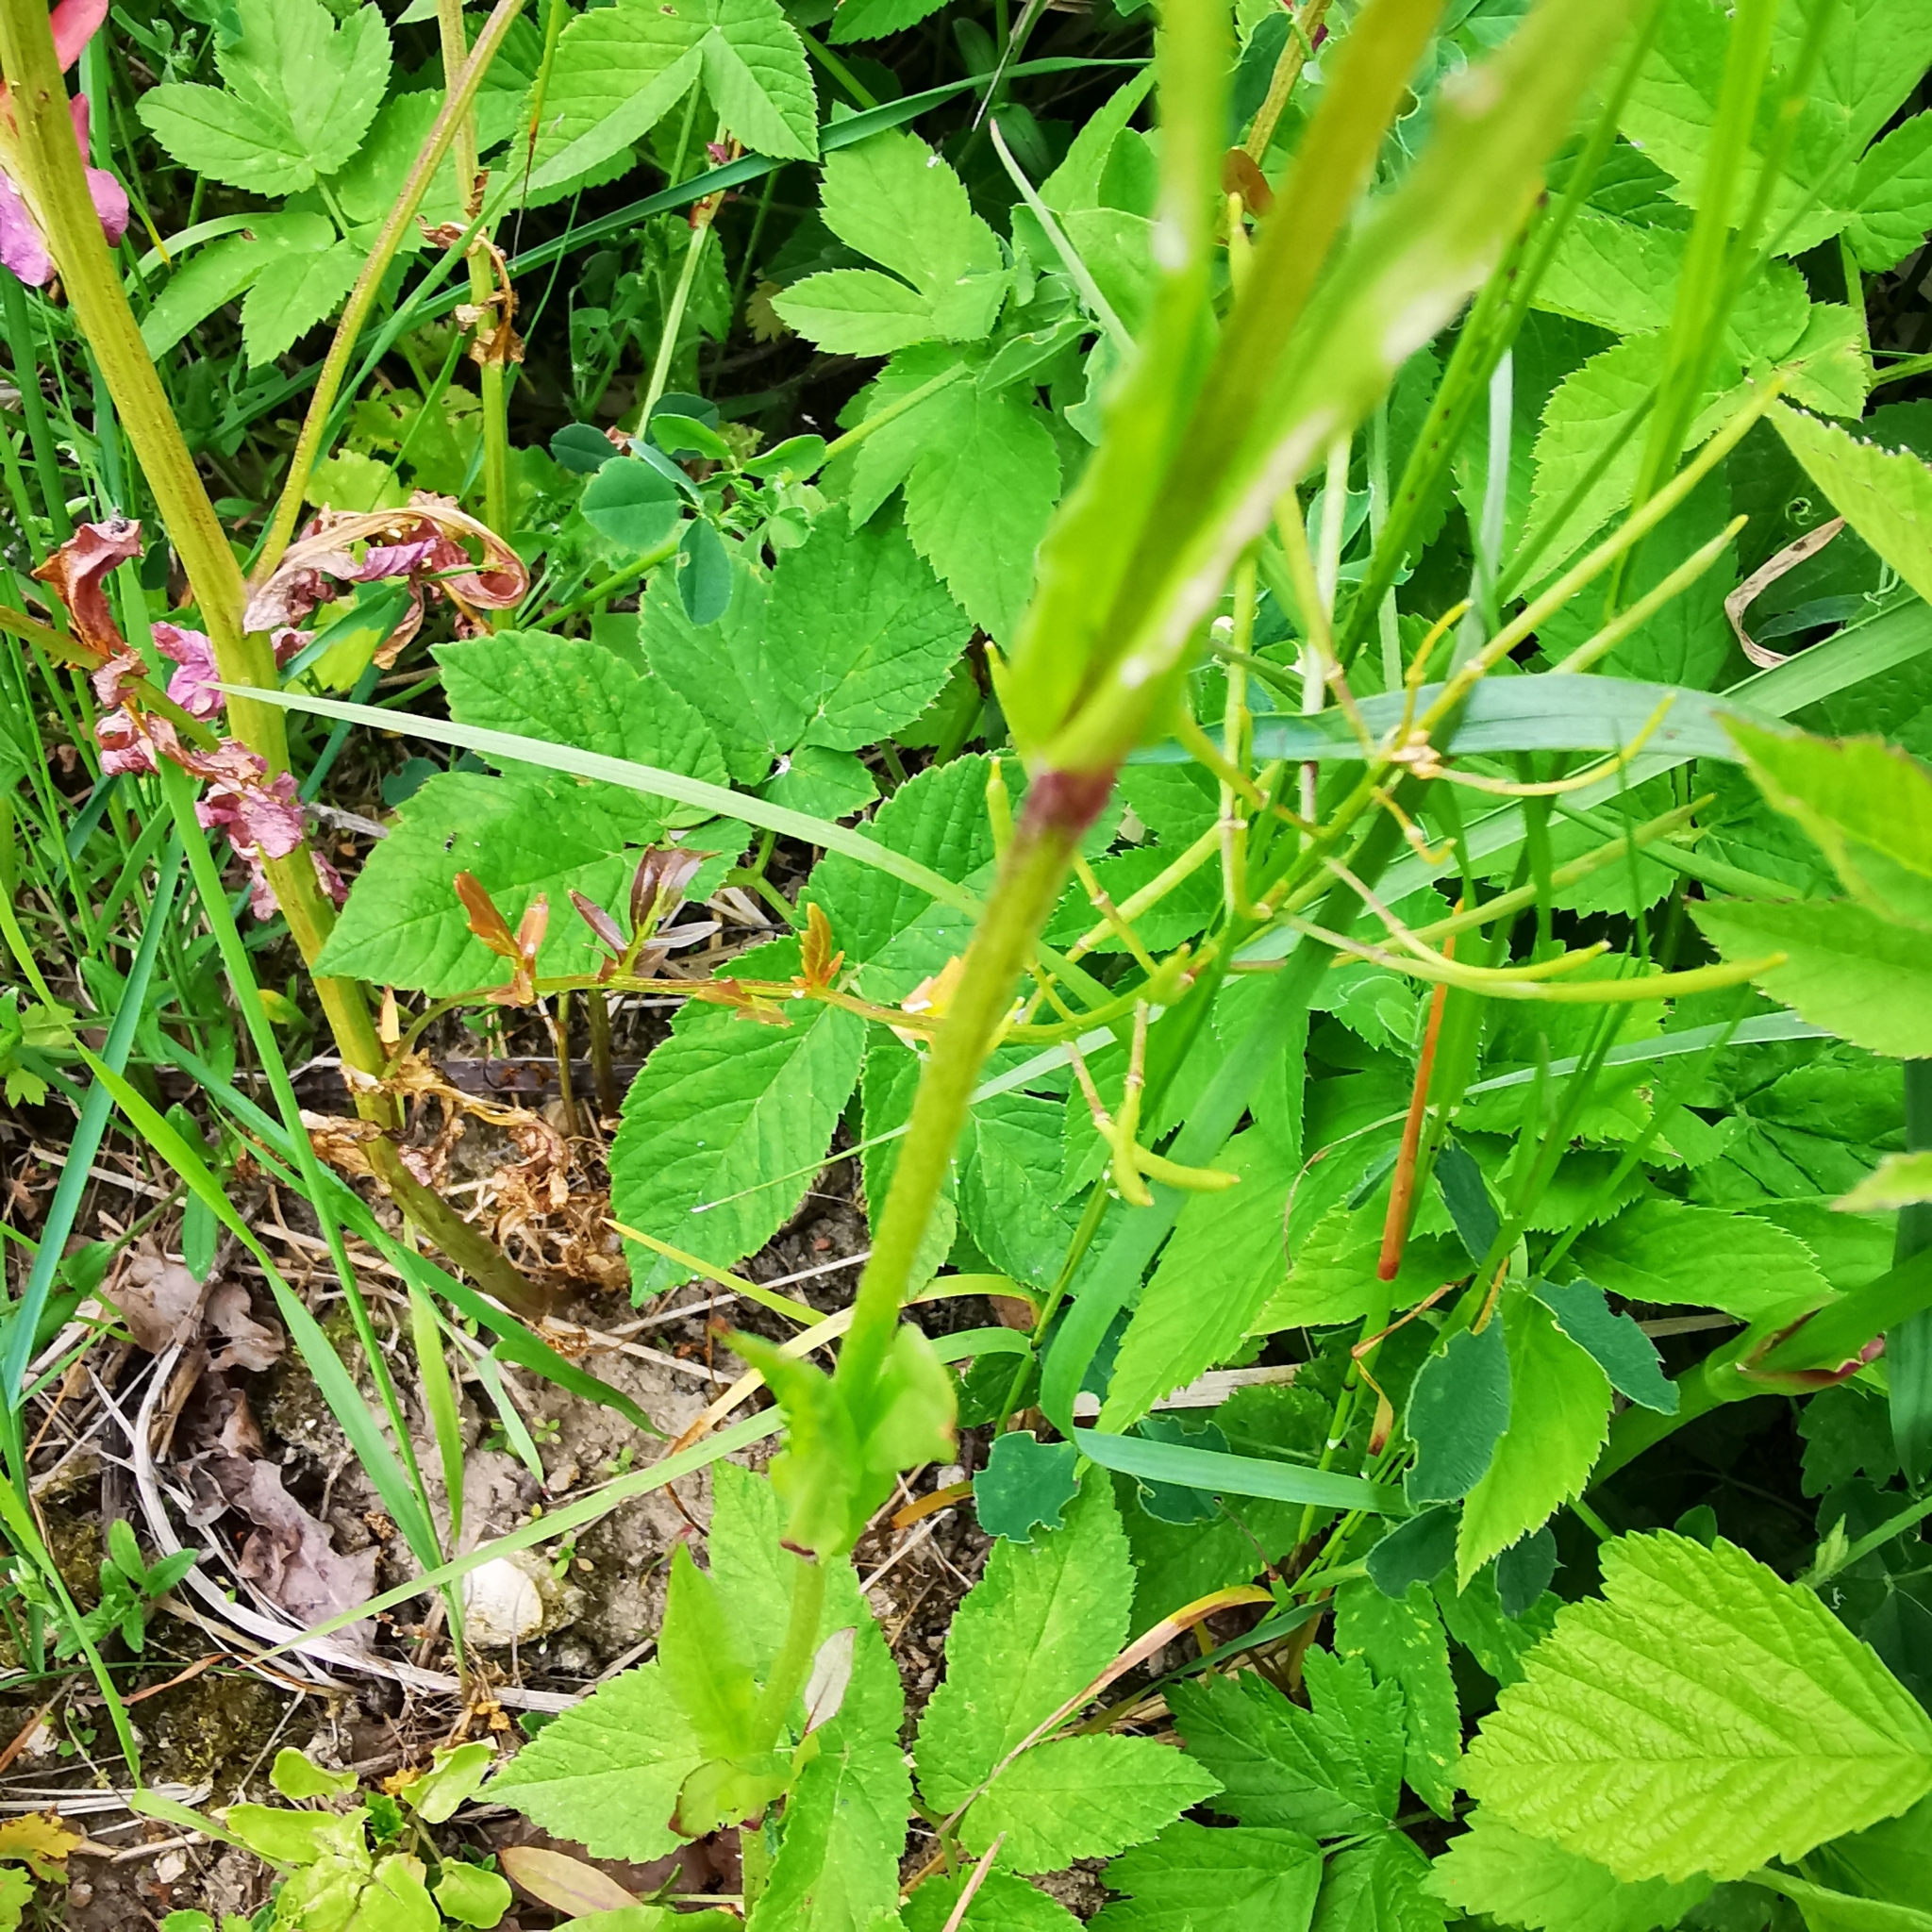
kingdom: Plantae
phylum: Tracheophyta
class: Magnoliopsida
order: Caryophyllales
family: Caryophyllaceae
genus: Silene
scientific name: Silene flos-cuculi
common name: Ragged-robin
